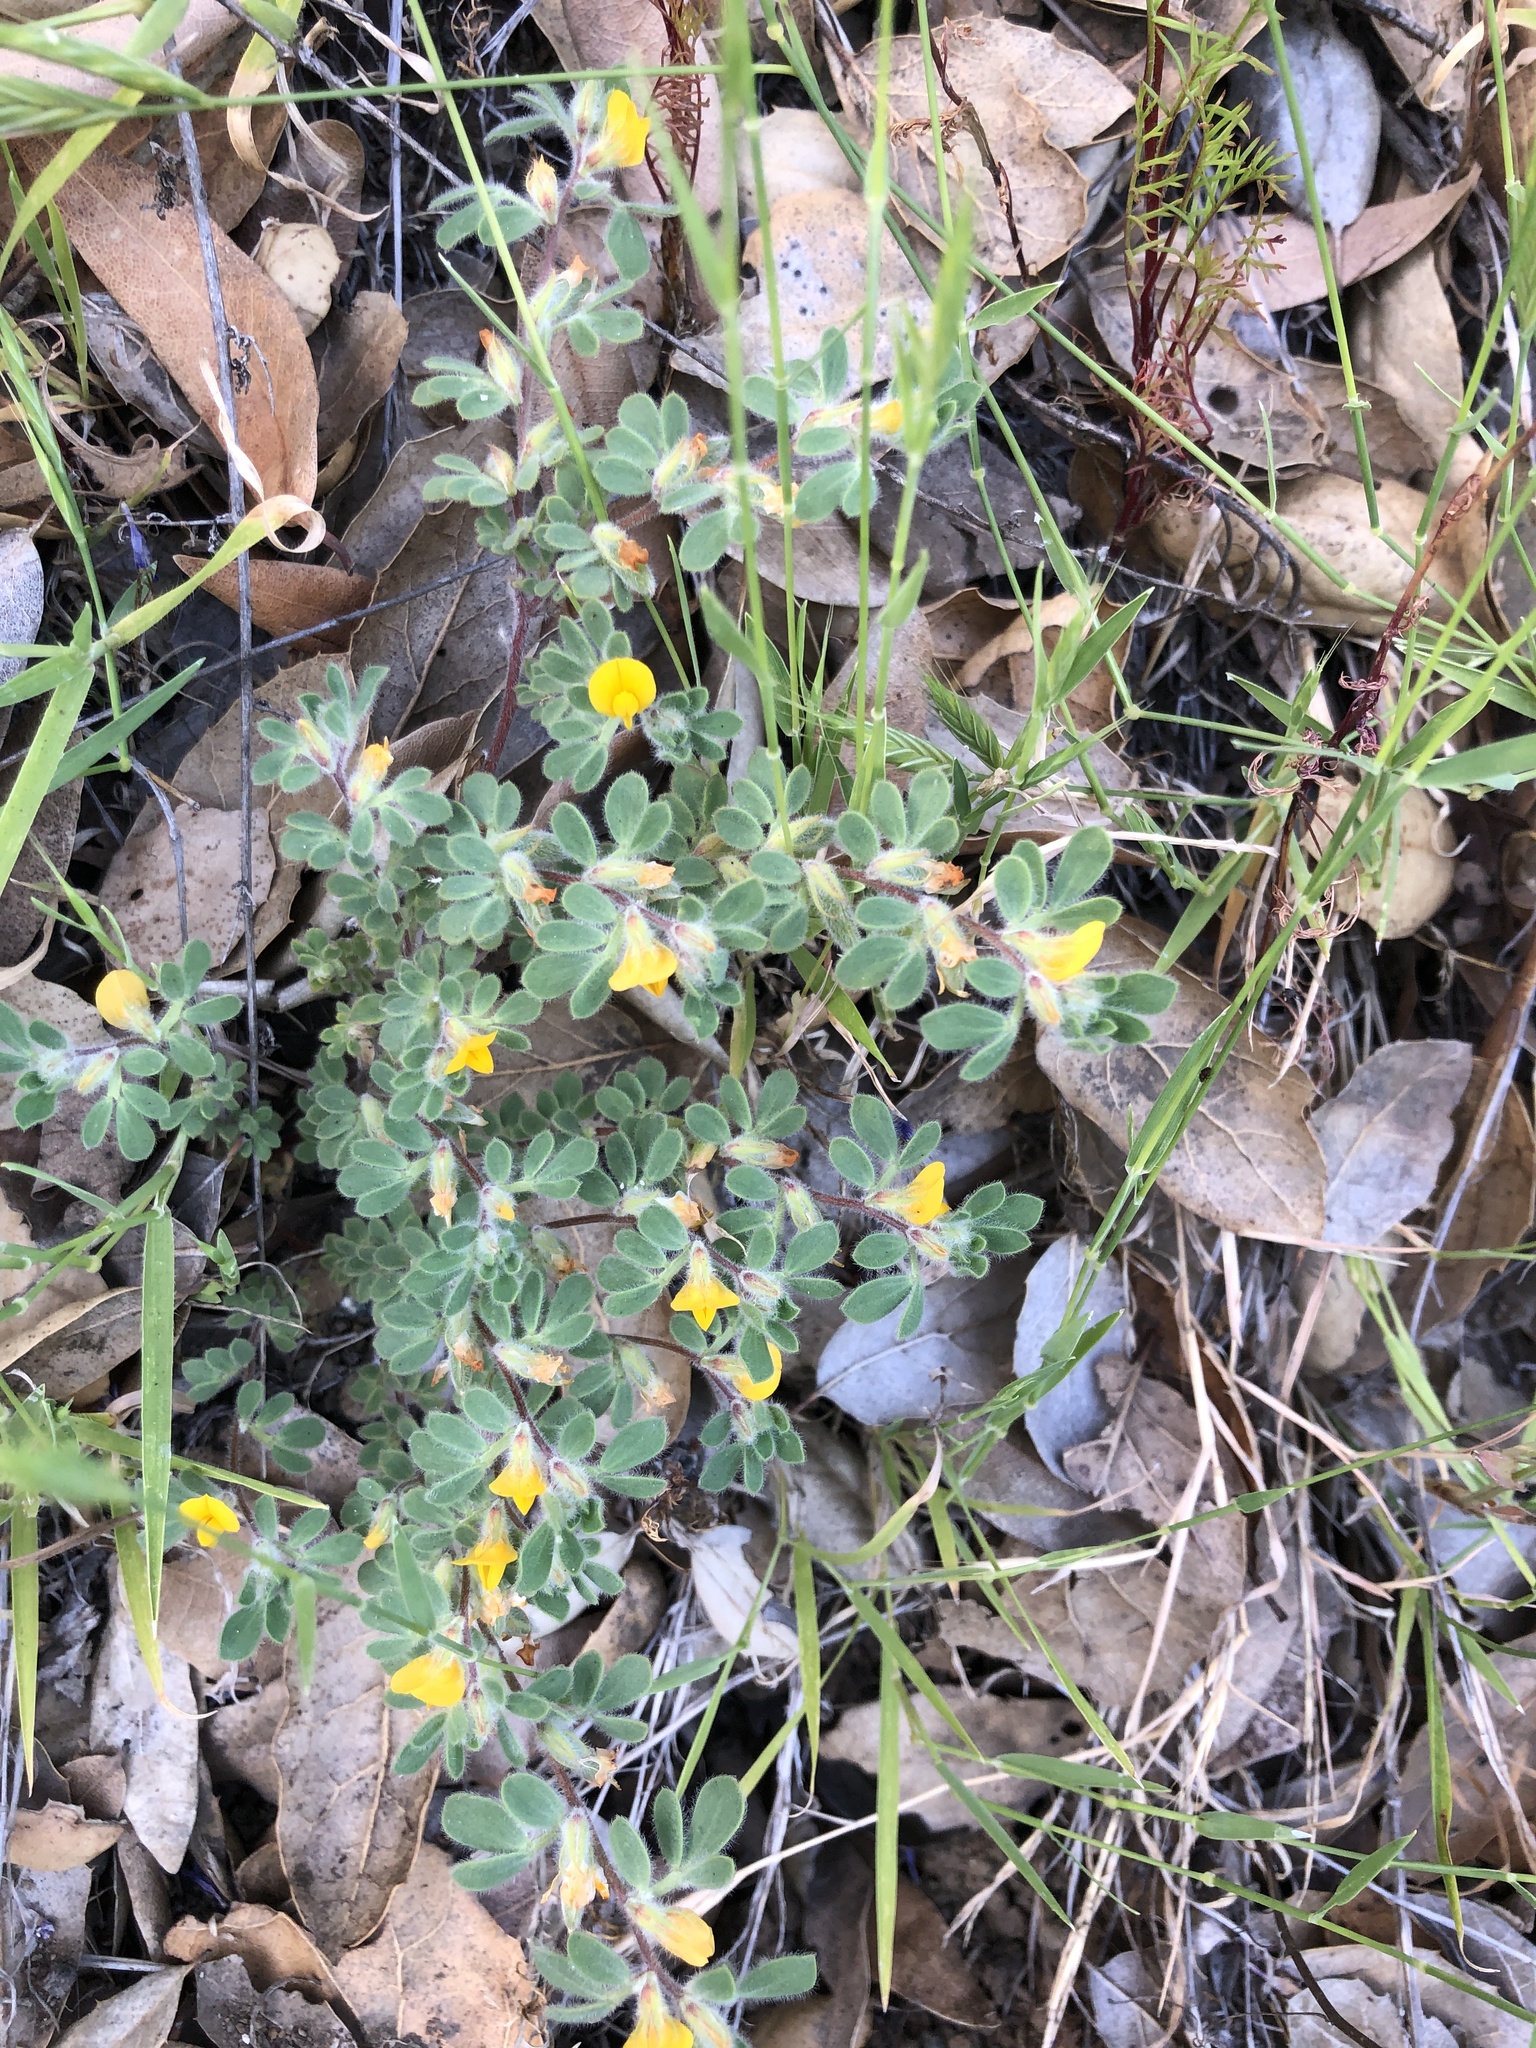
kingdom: Plantae
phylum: Tracheophyta
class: Magnoliopsida
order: Fabales
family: Fabaceae
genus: Acmispon
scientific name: Acmispon brachycarpus
